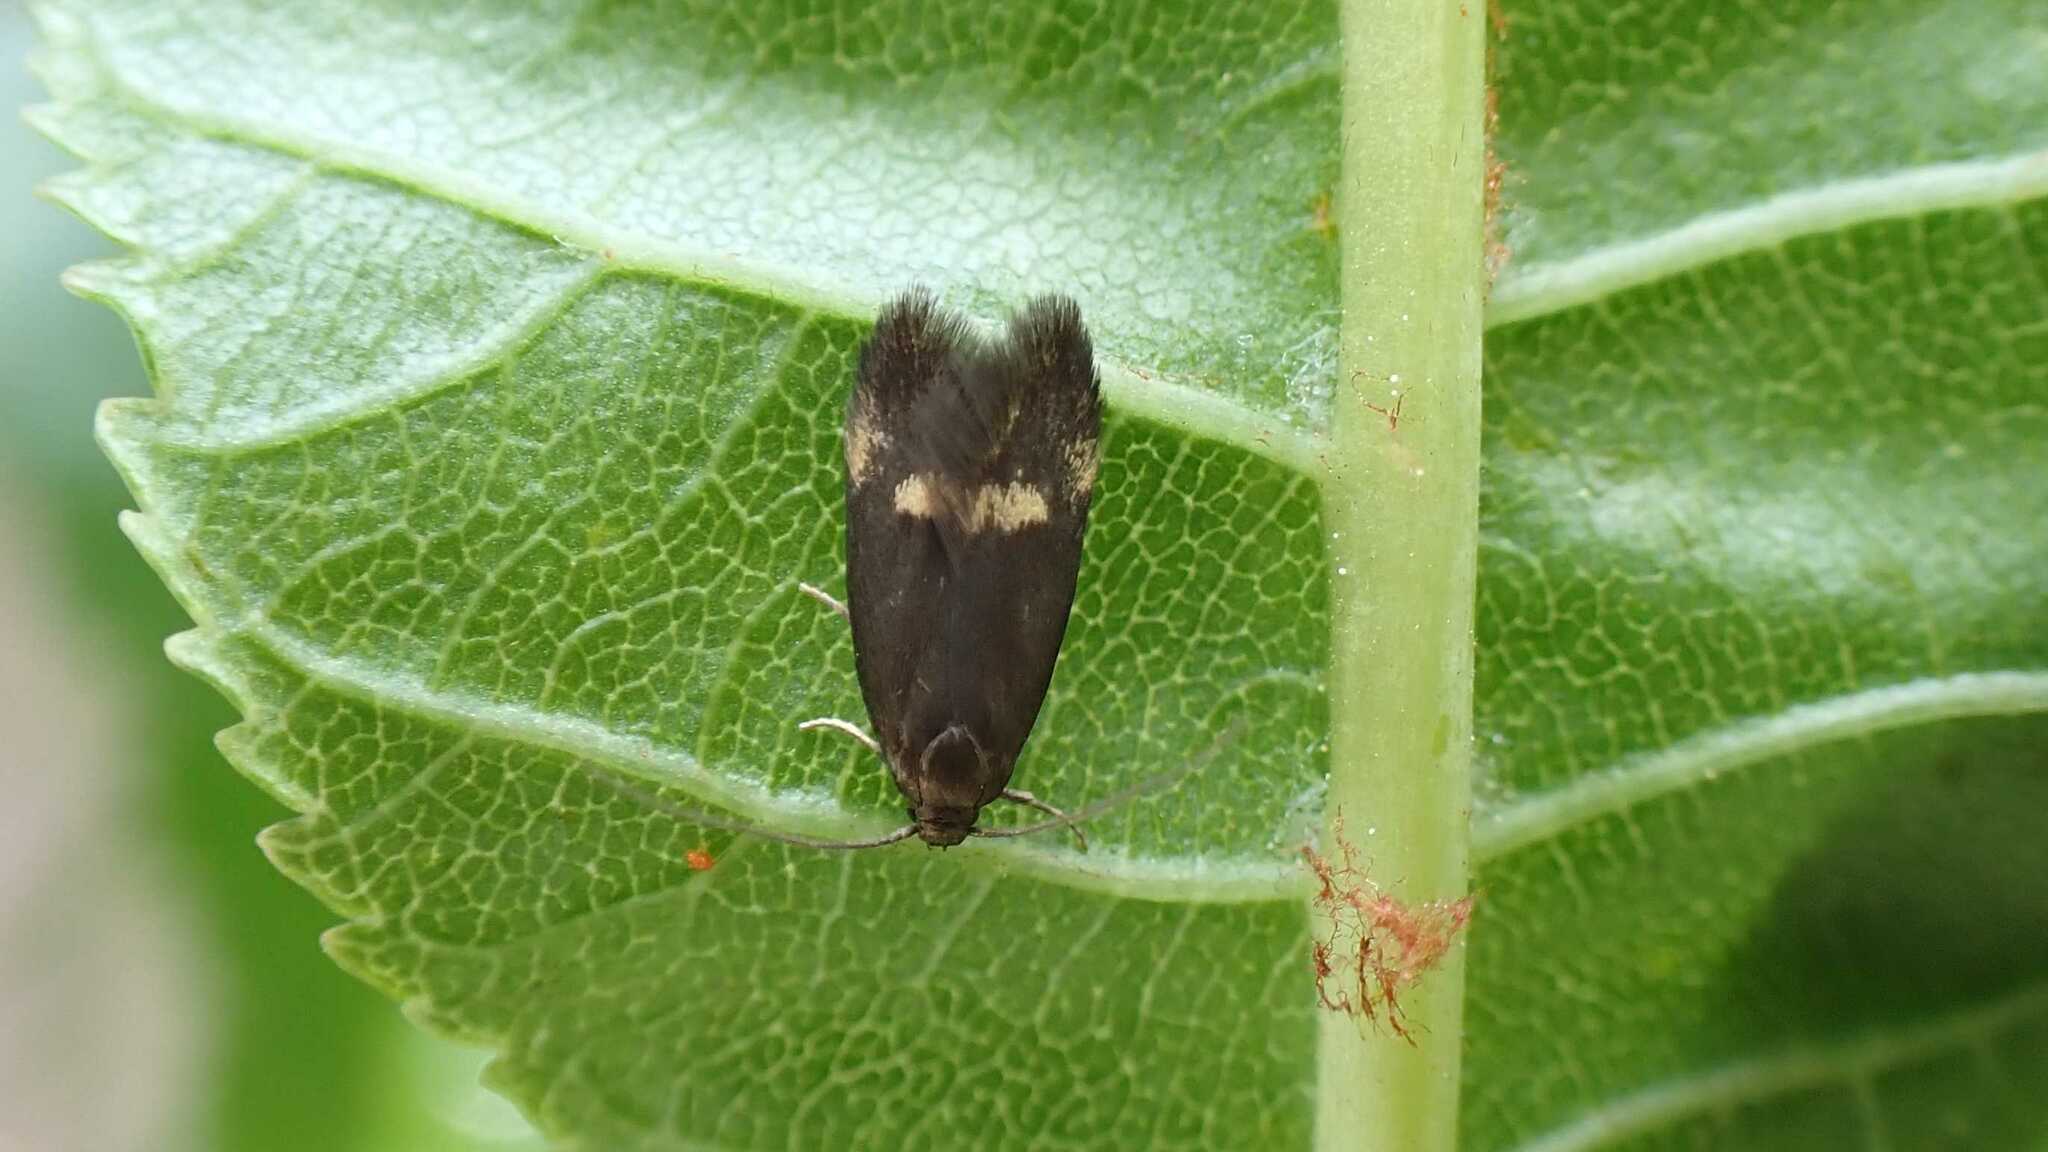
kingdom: Animalia
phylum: Arthropoda
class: Insecta
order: Lepidoptera
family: Oecophoridae
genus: Borkhausenia
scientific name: Borkhausenia minutella
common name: Thatch tubic
